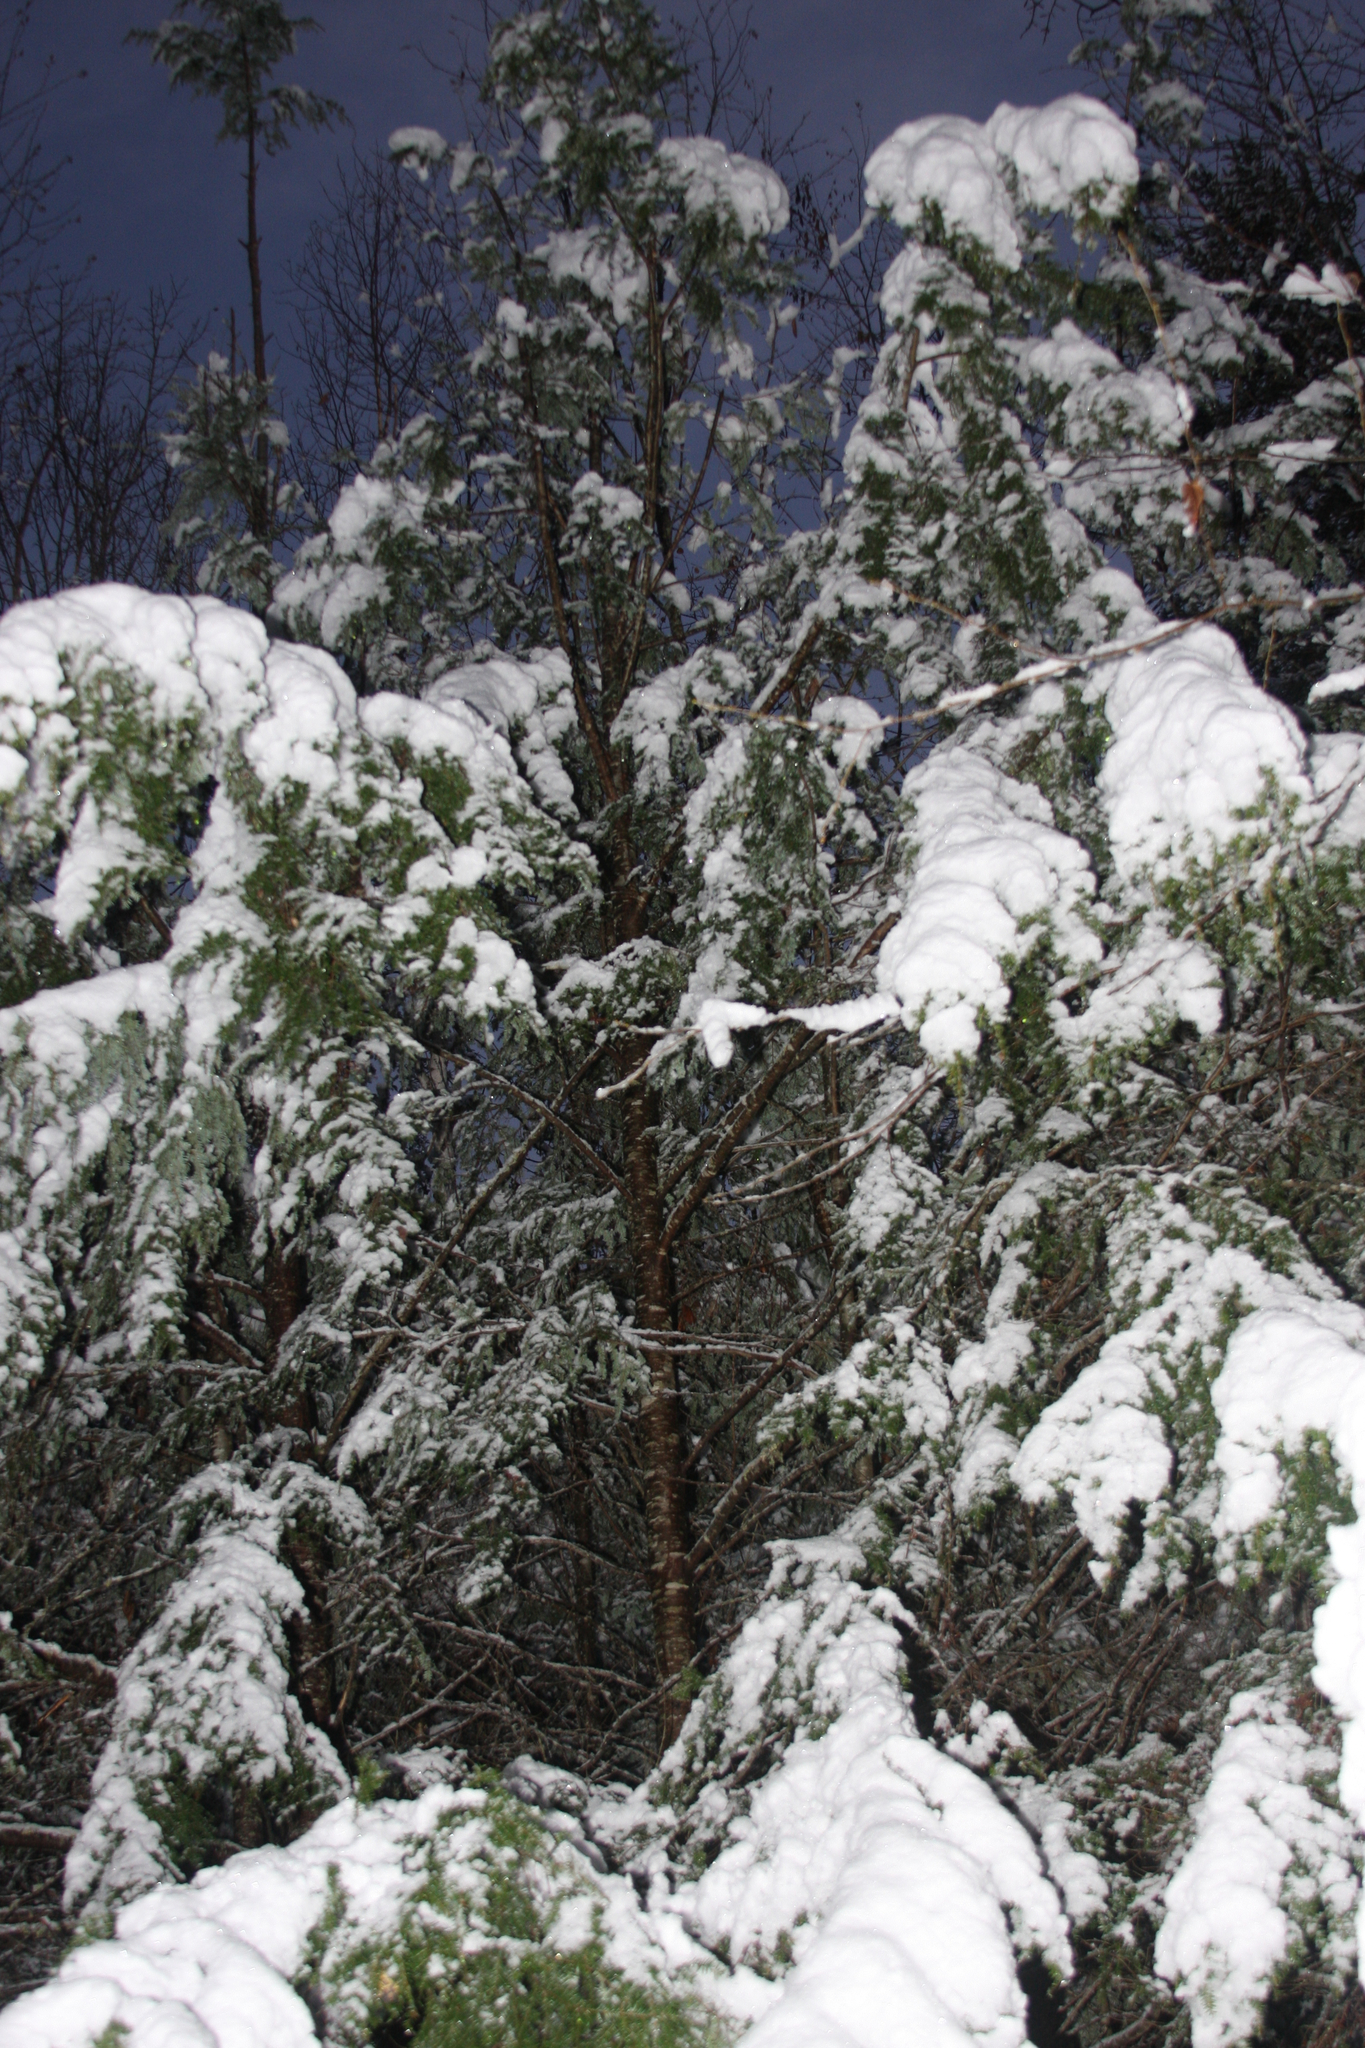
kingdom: Plantae
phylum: Tracheophyta
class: Pinopsida
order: Pinales
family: Pinaceae
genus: Tsuga
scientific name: Tsuga canadensis
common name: Eastern hemlock
